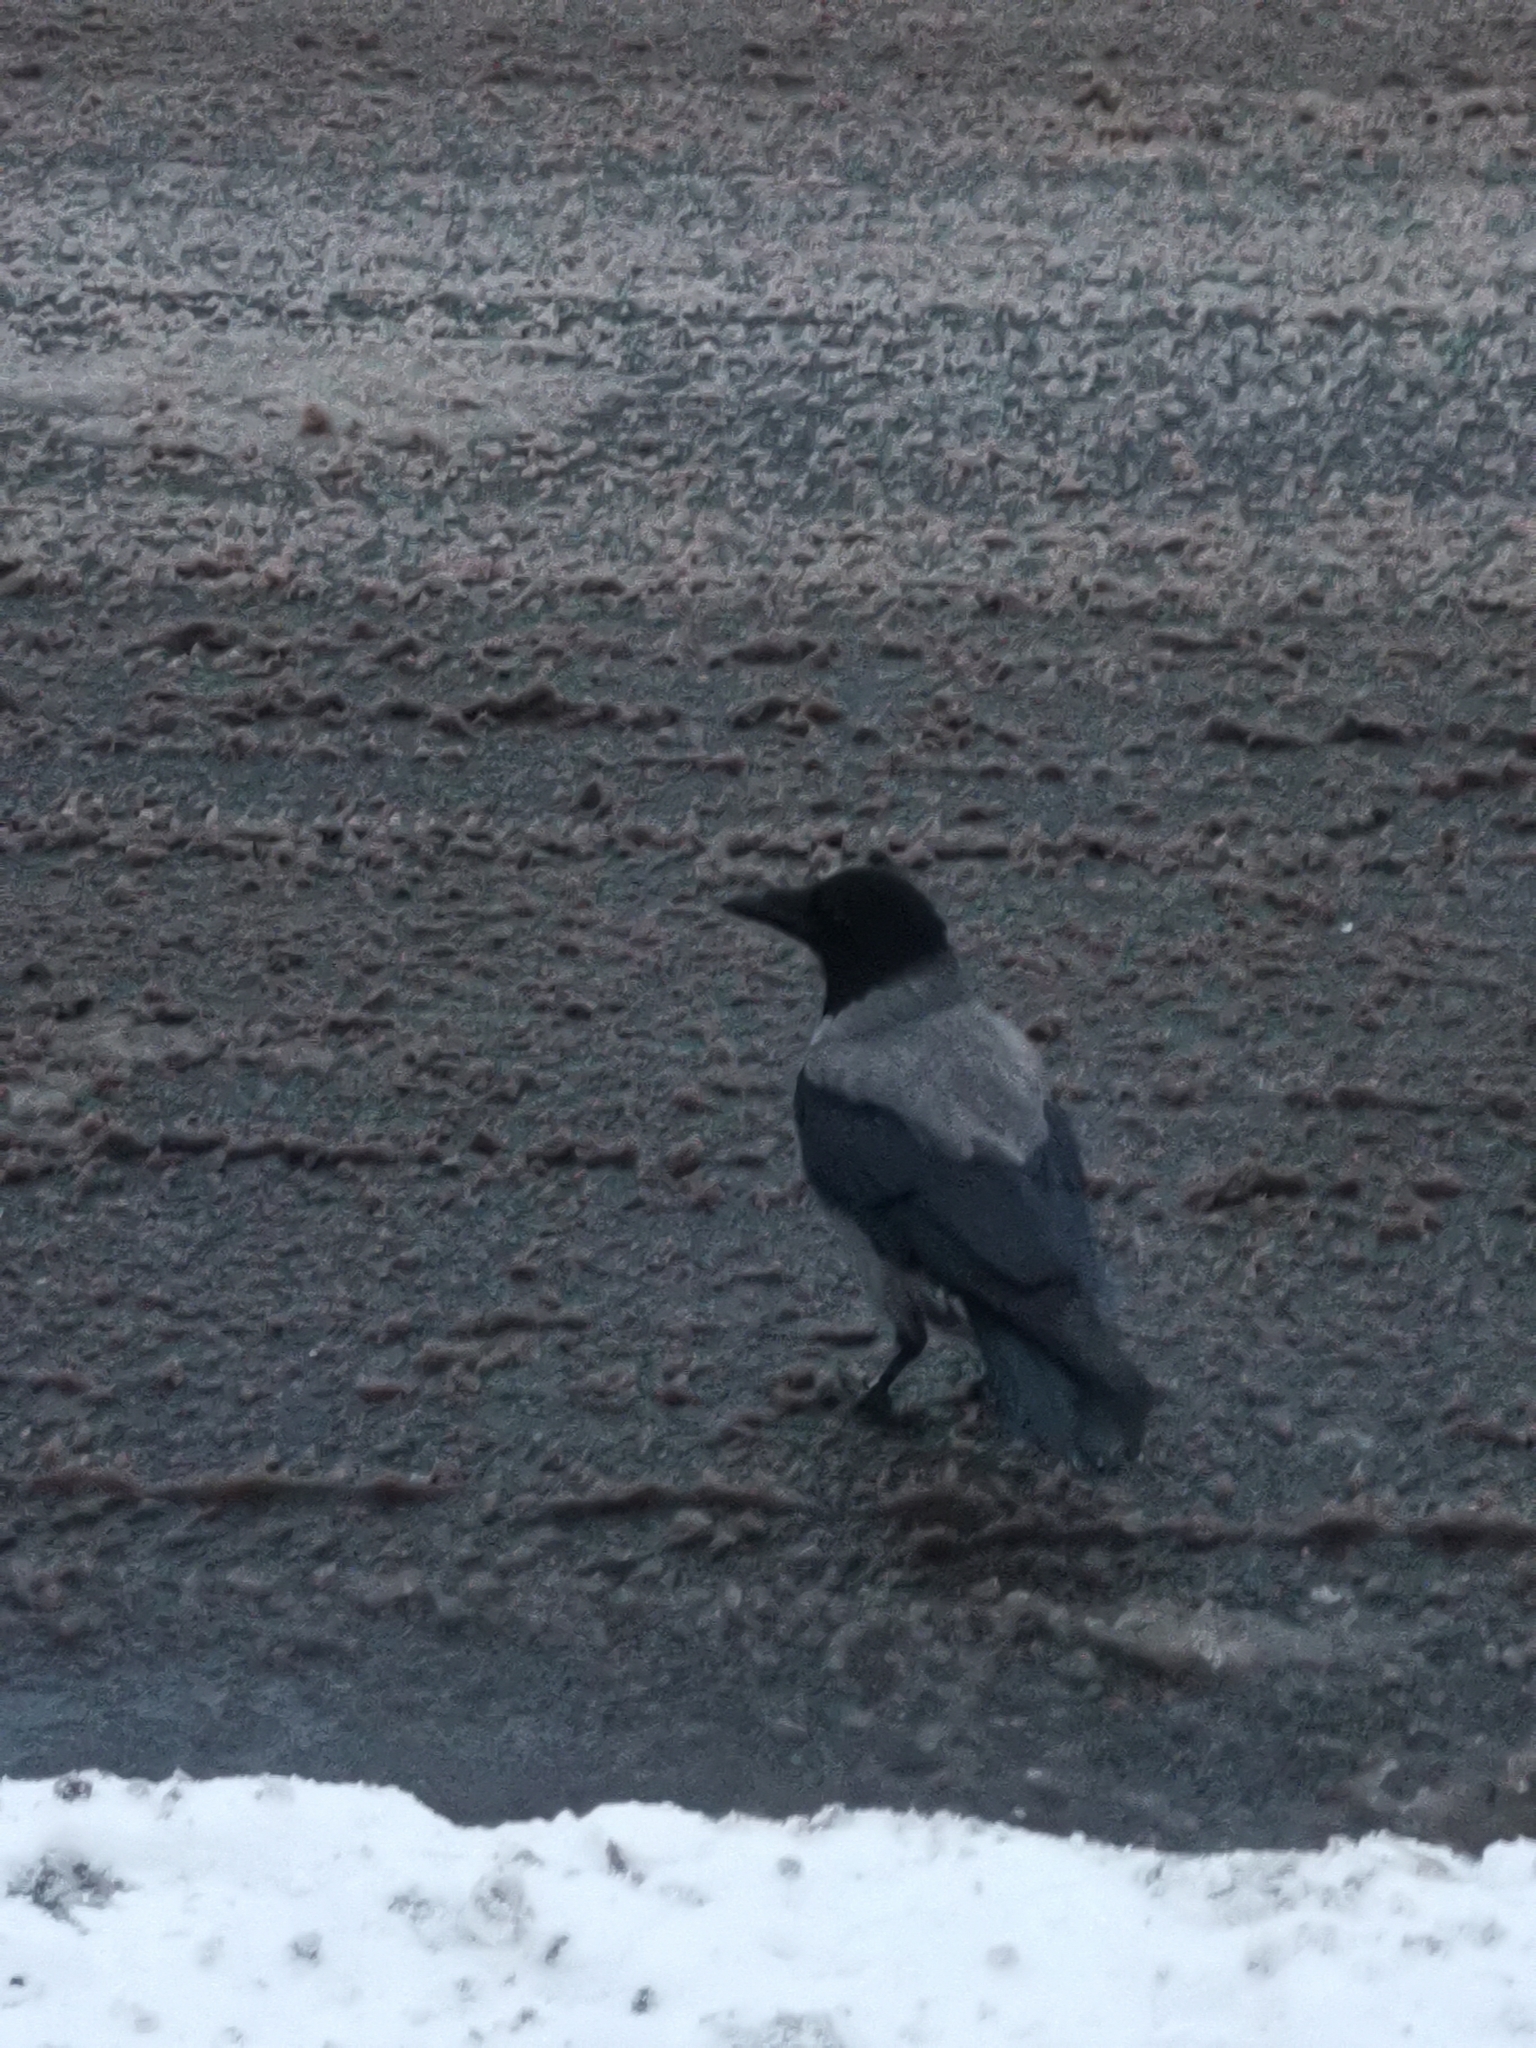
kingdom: Animalia
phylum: Chordata
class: Aves
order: Passeriformes
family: Corvidae
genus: Corvus
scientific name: Corvus cornix
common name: Hooded crow
